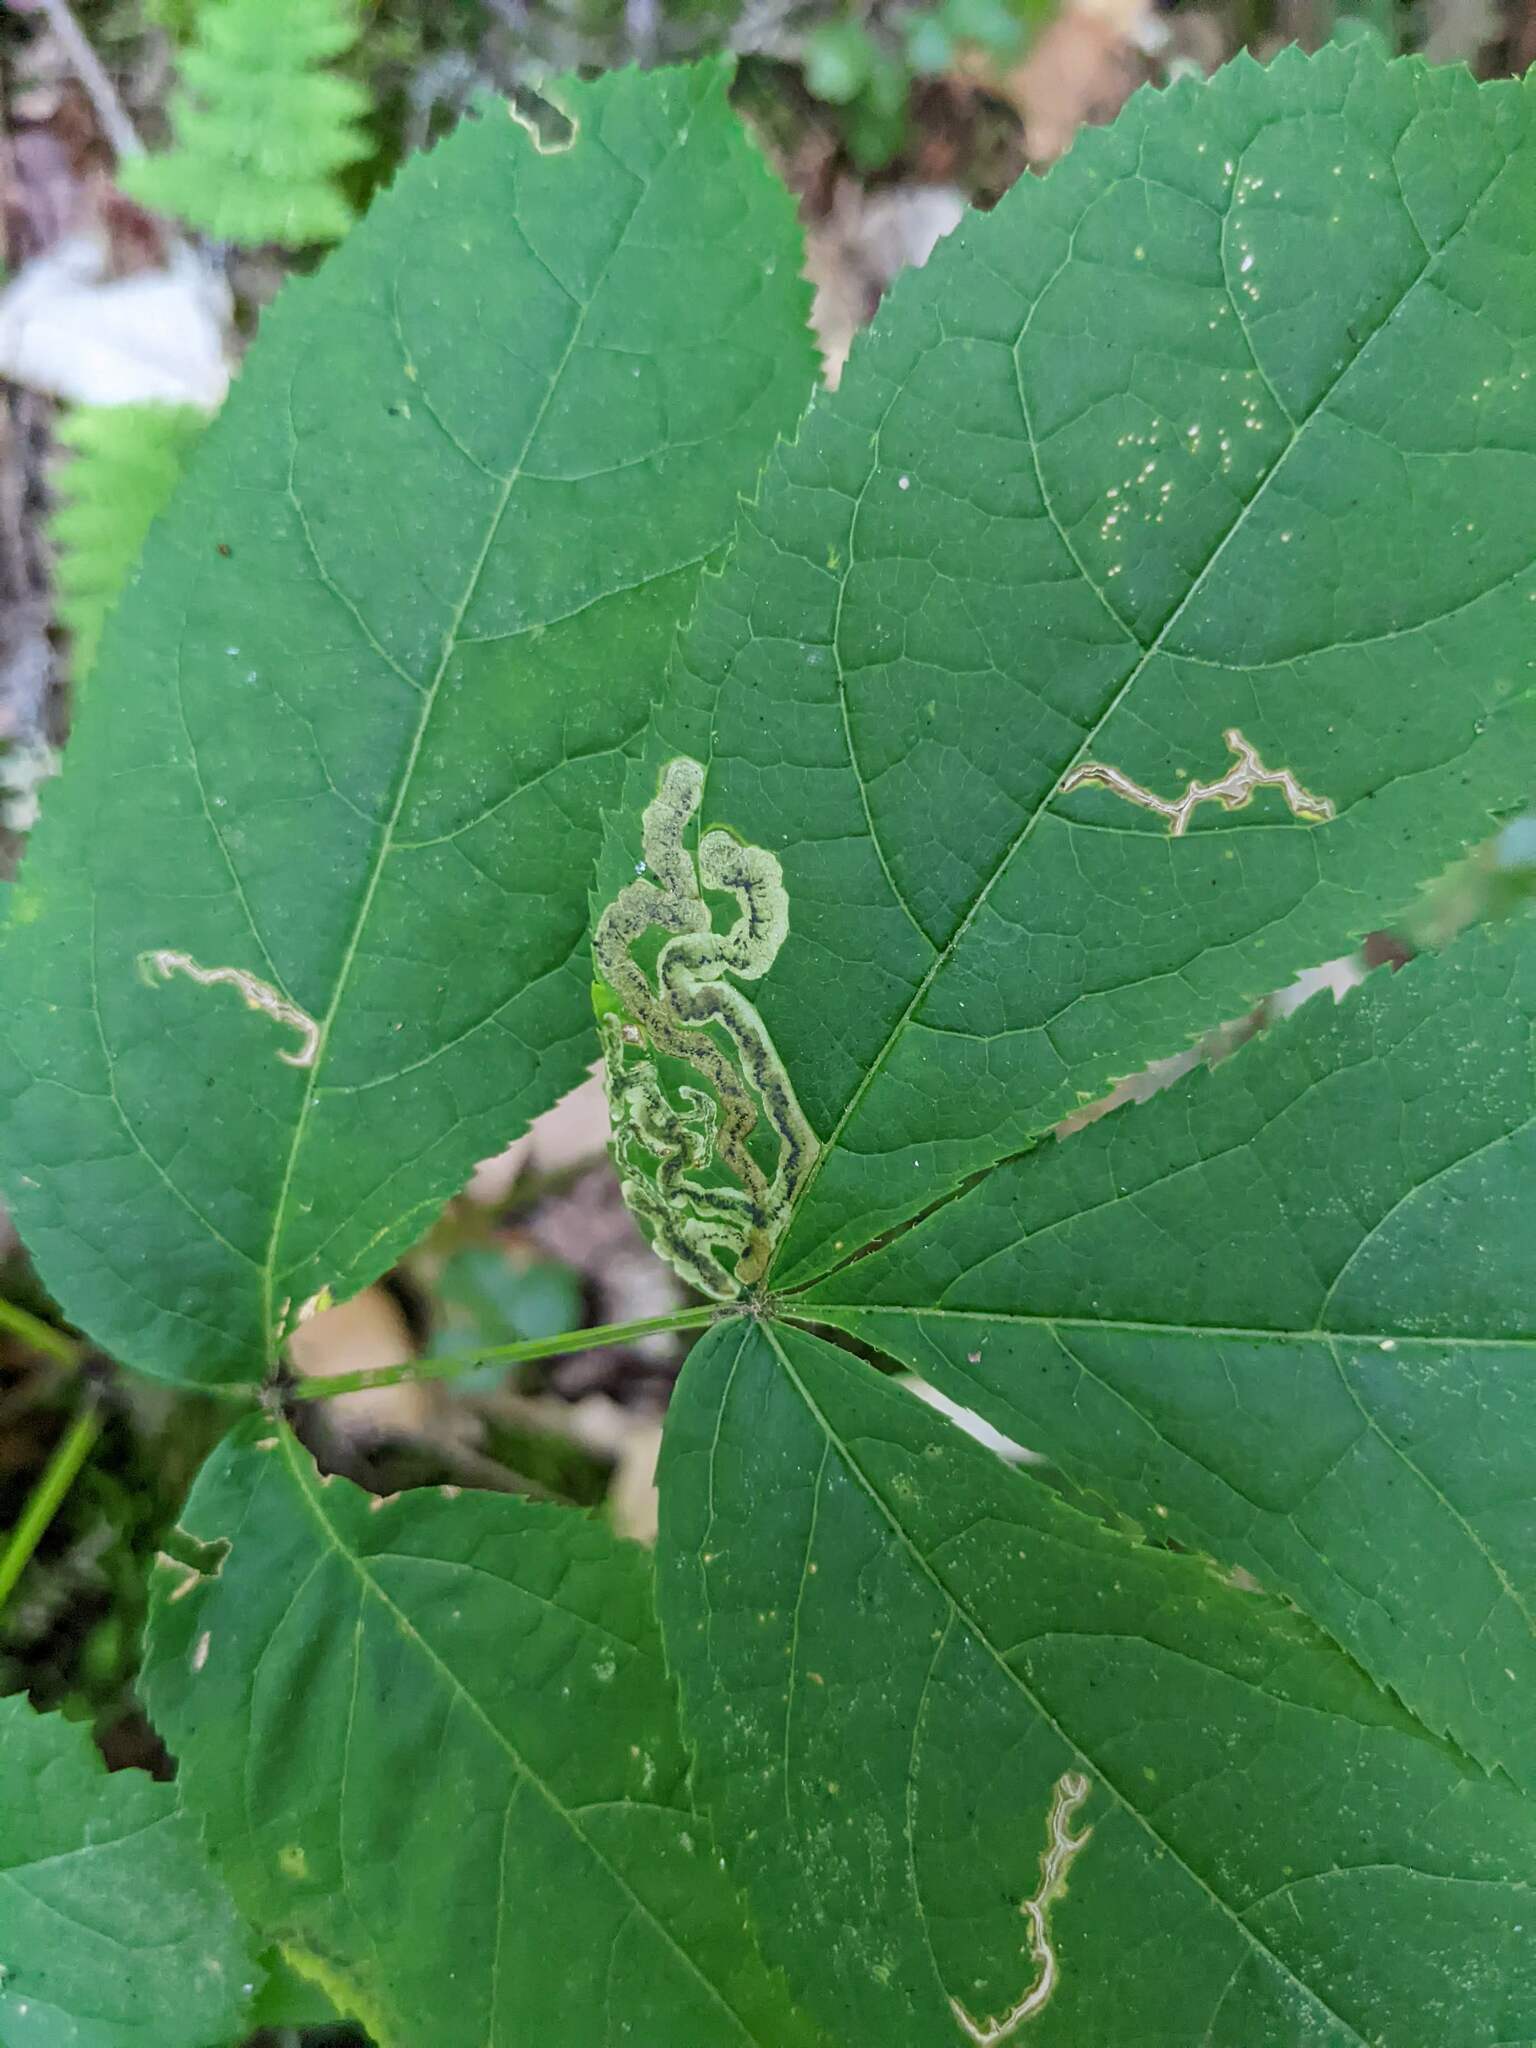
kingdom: Animalia
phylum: Arthropoda
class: Insecta
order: Diptera
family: Agromyzidae
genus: Phytomyza
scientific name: Phytomyza aralivora
